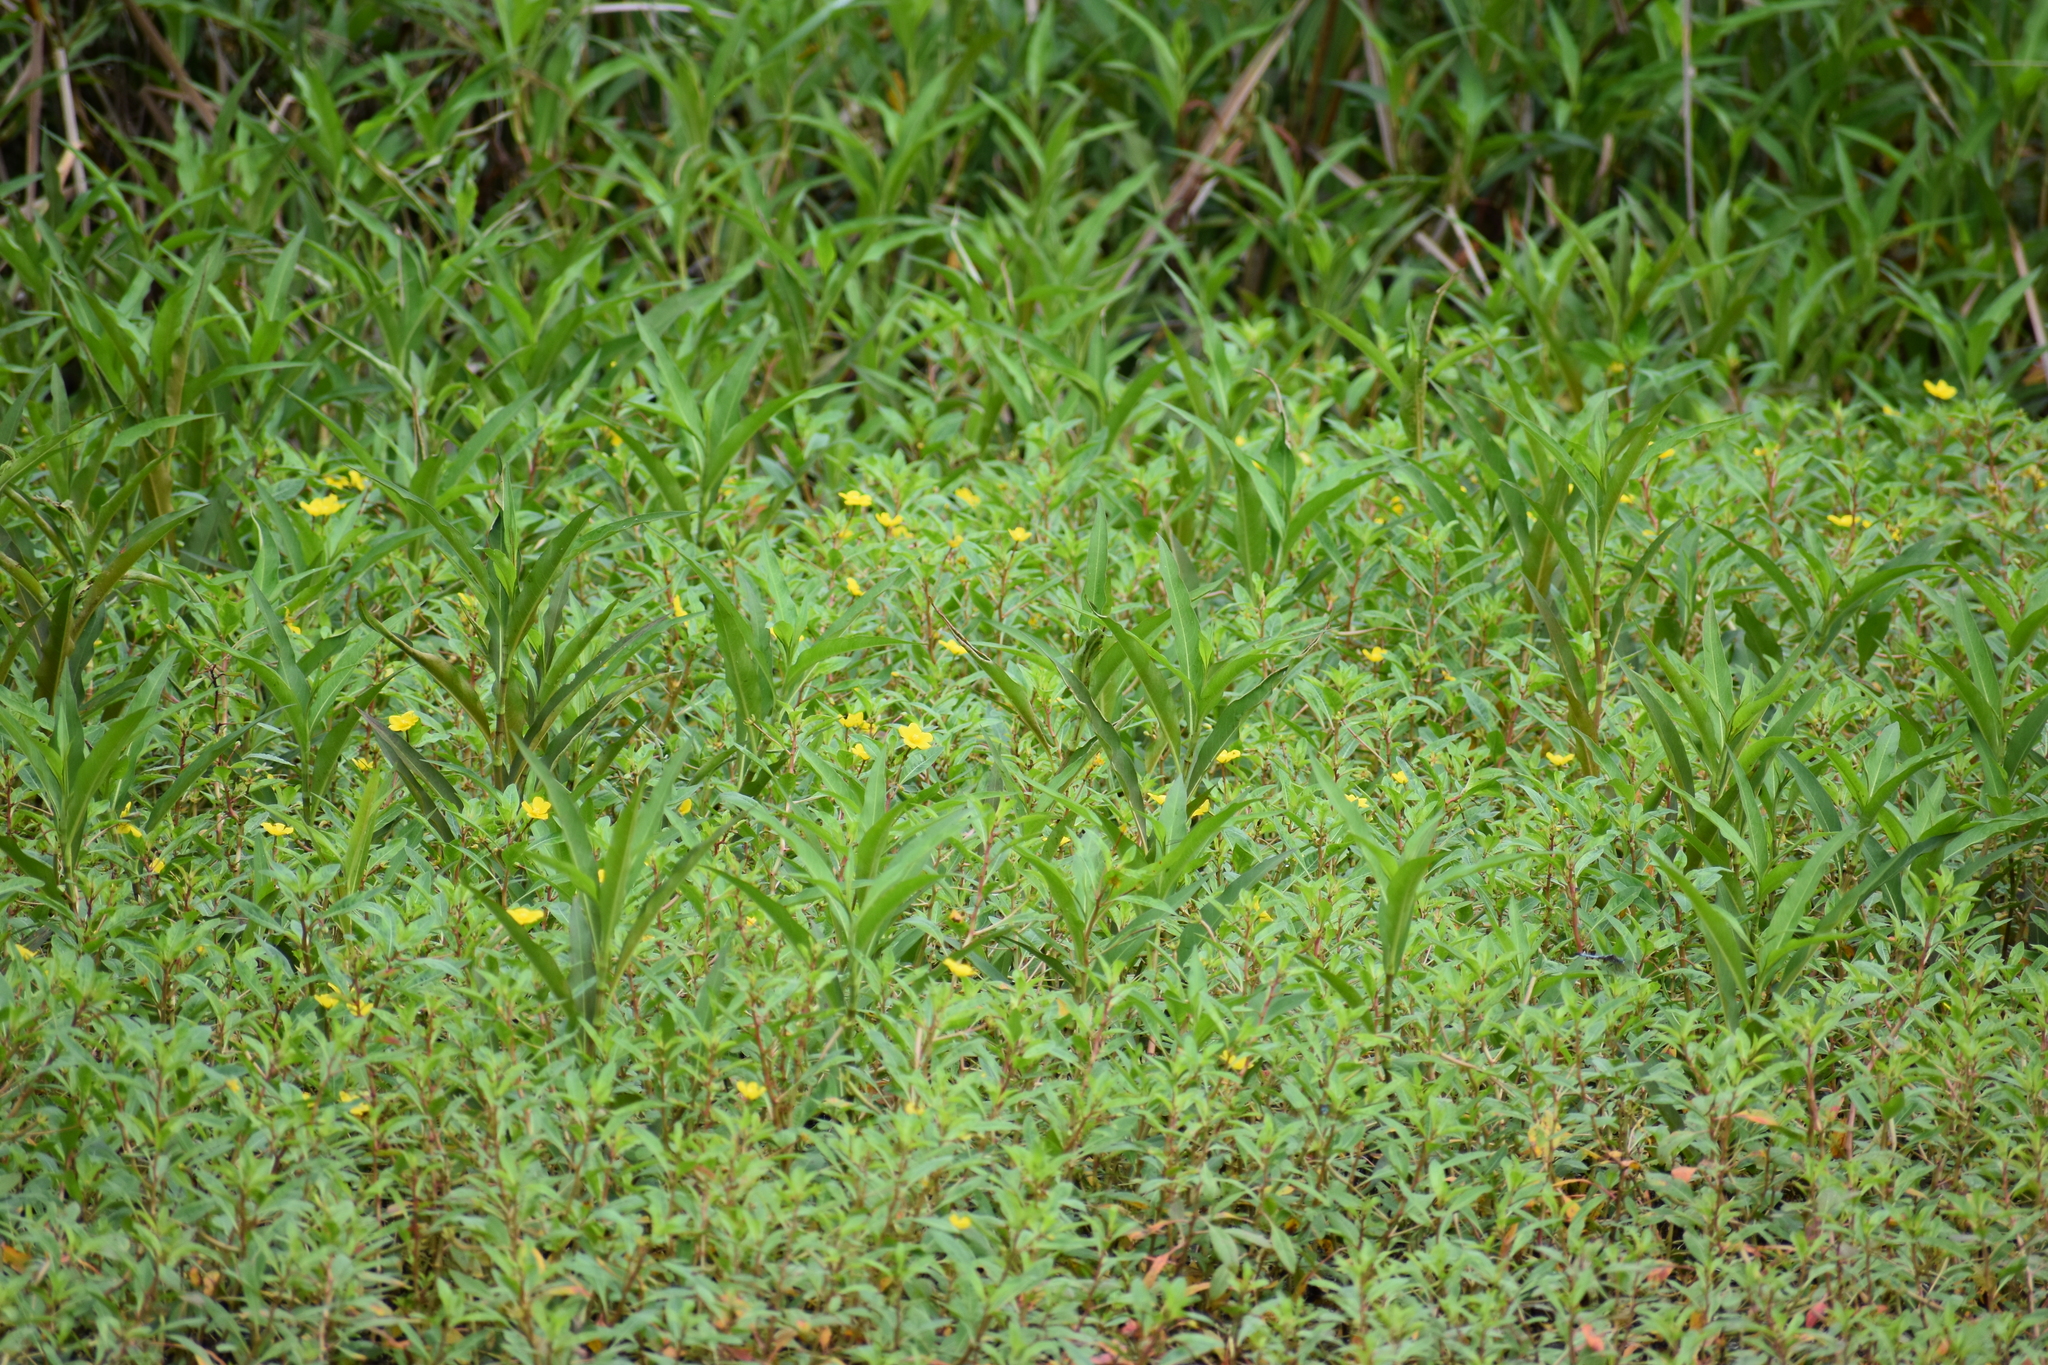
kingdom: Plantae
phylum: Tracheophyta
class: Magnoliopsida
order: Myrtales
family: Onagraceae
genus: Ludwigia
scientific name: Ludwigia alternifolia
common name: Rattlebox
